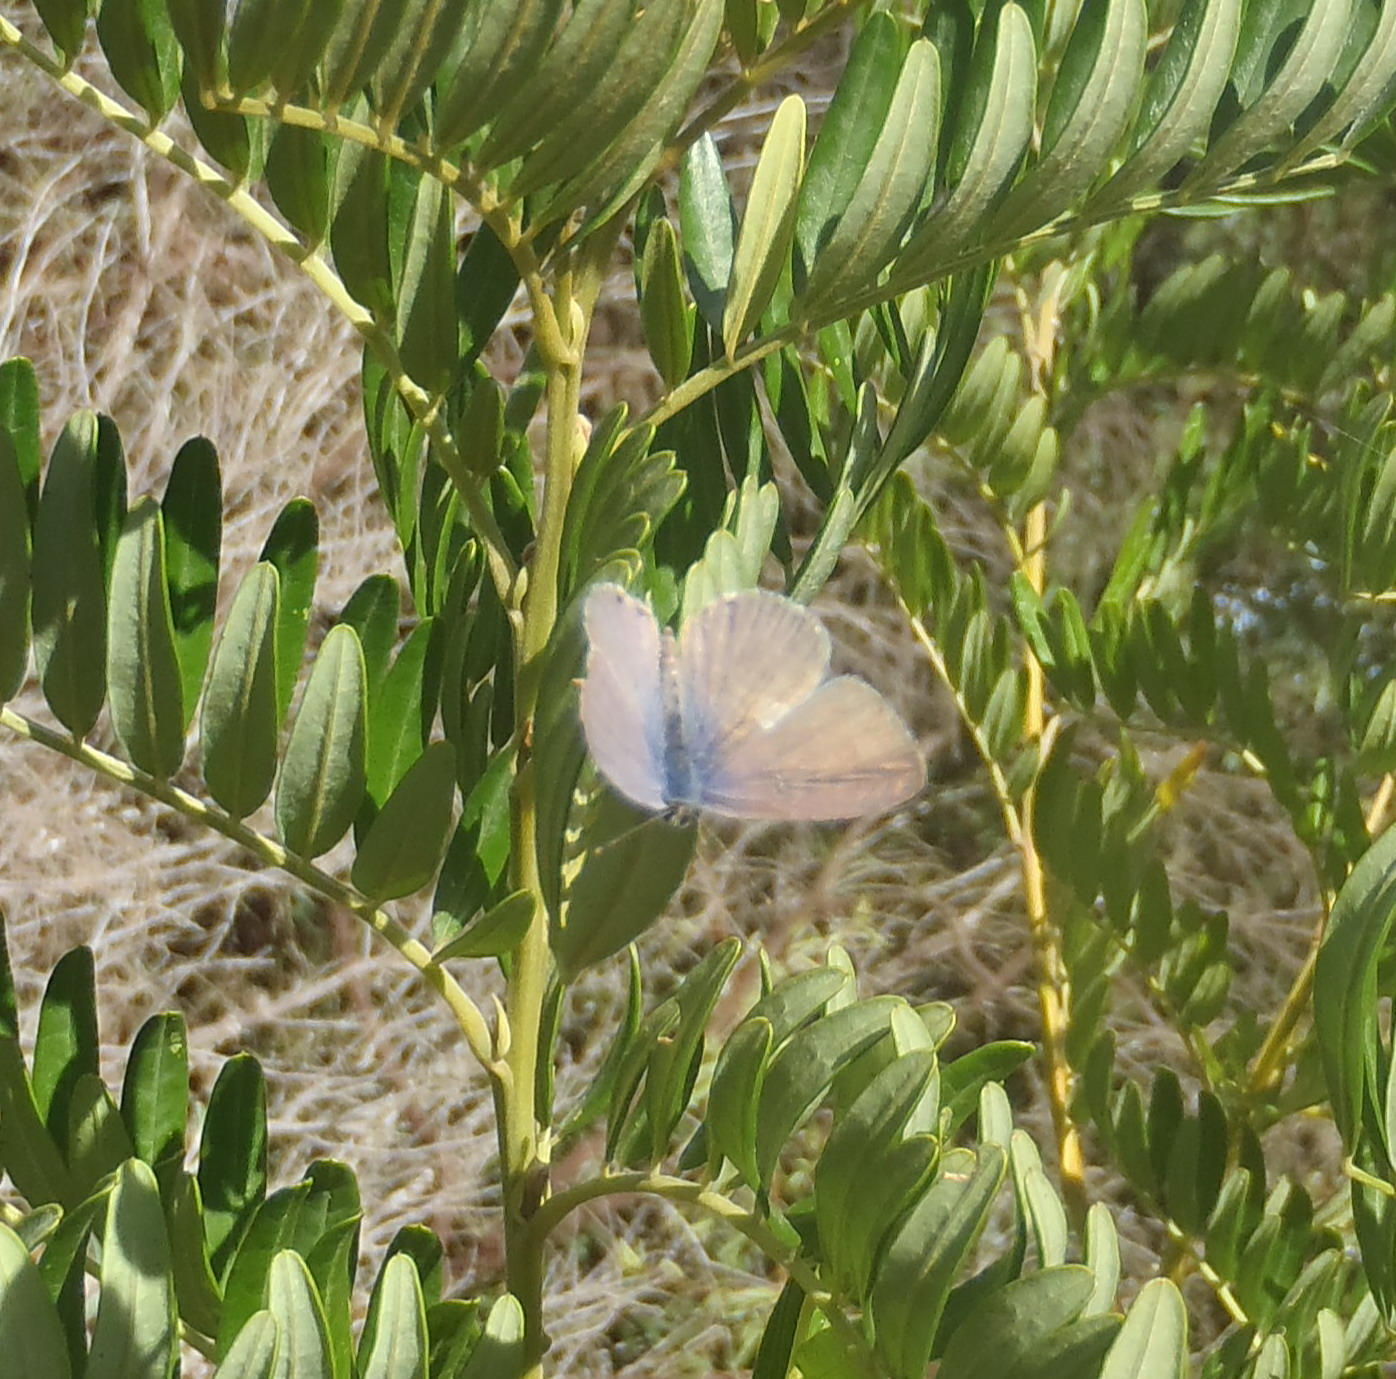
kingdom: Animalia
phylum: Arthropoda
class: Insecta
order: Lepidoptera
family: Lycaenidae
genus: Cacyreus
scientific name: Cacyreus lingeus
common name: Bush bronze
